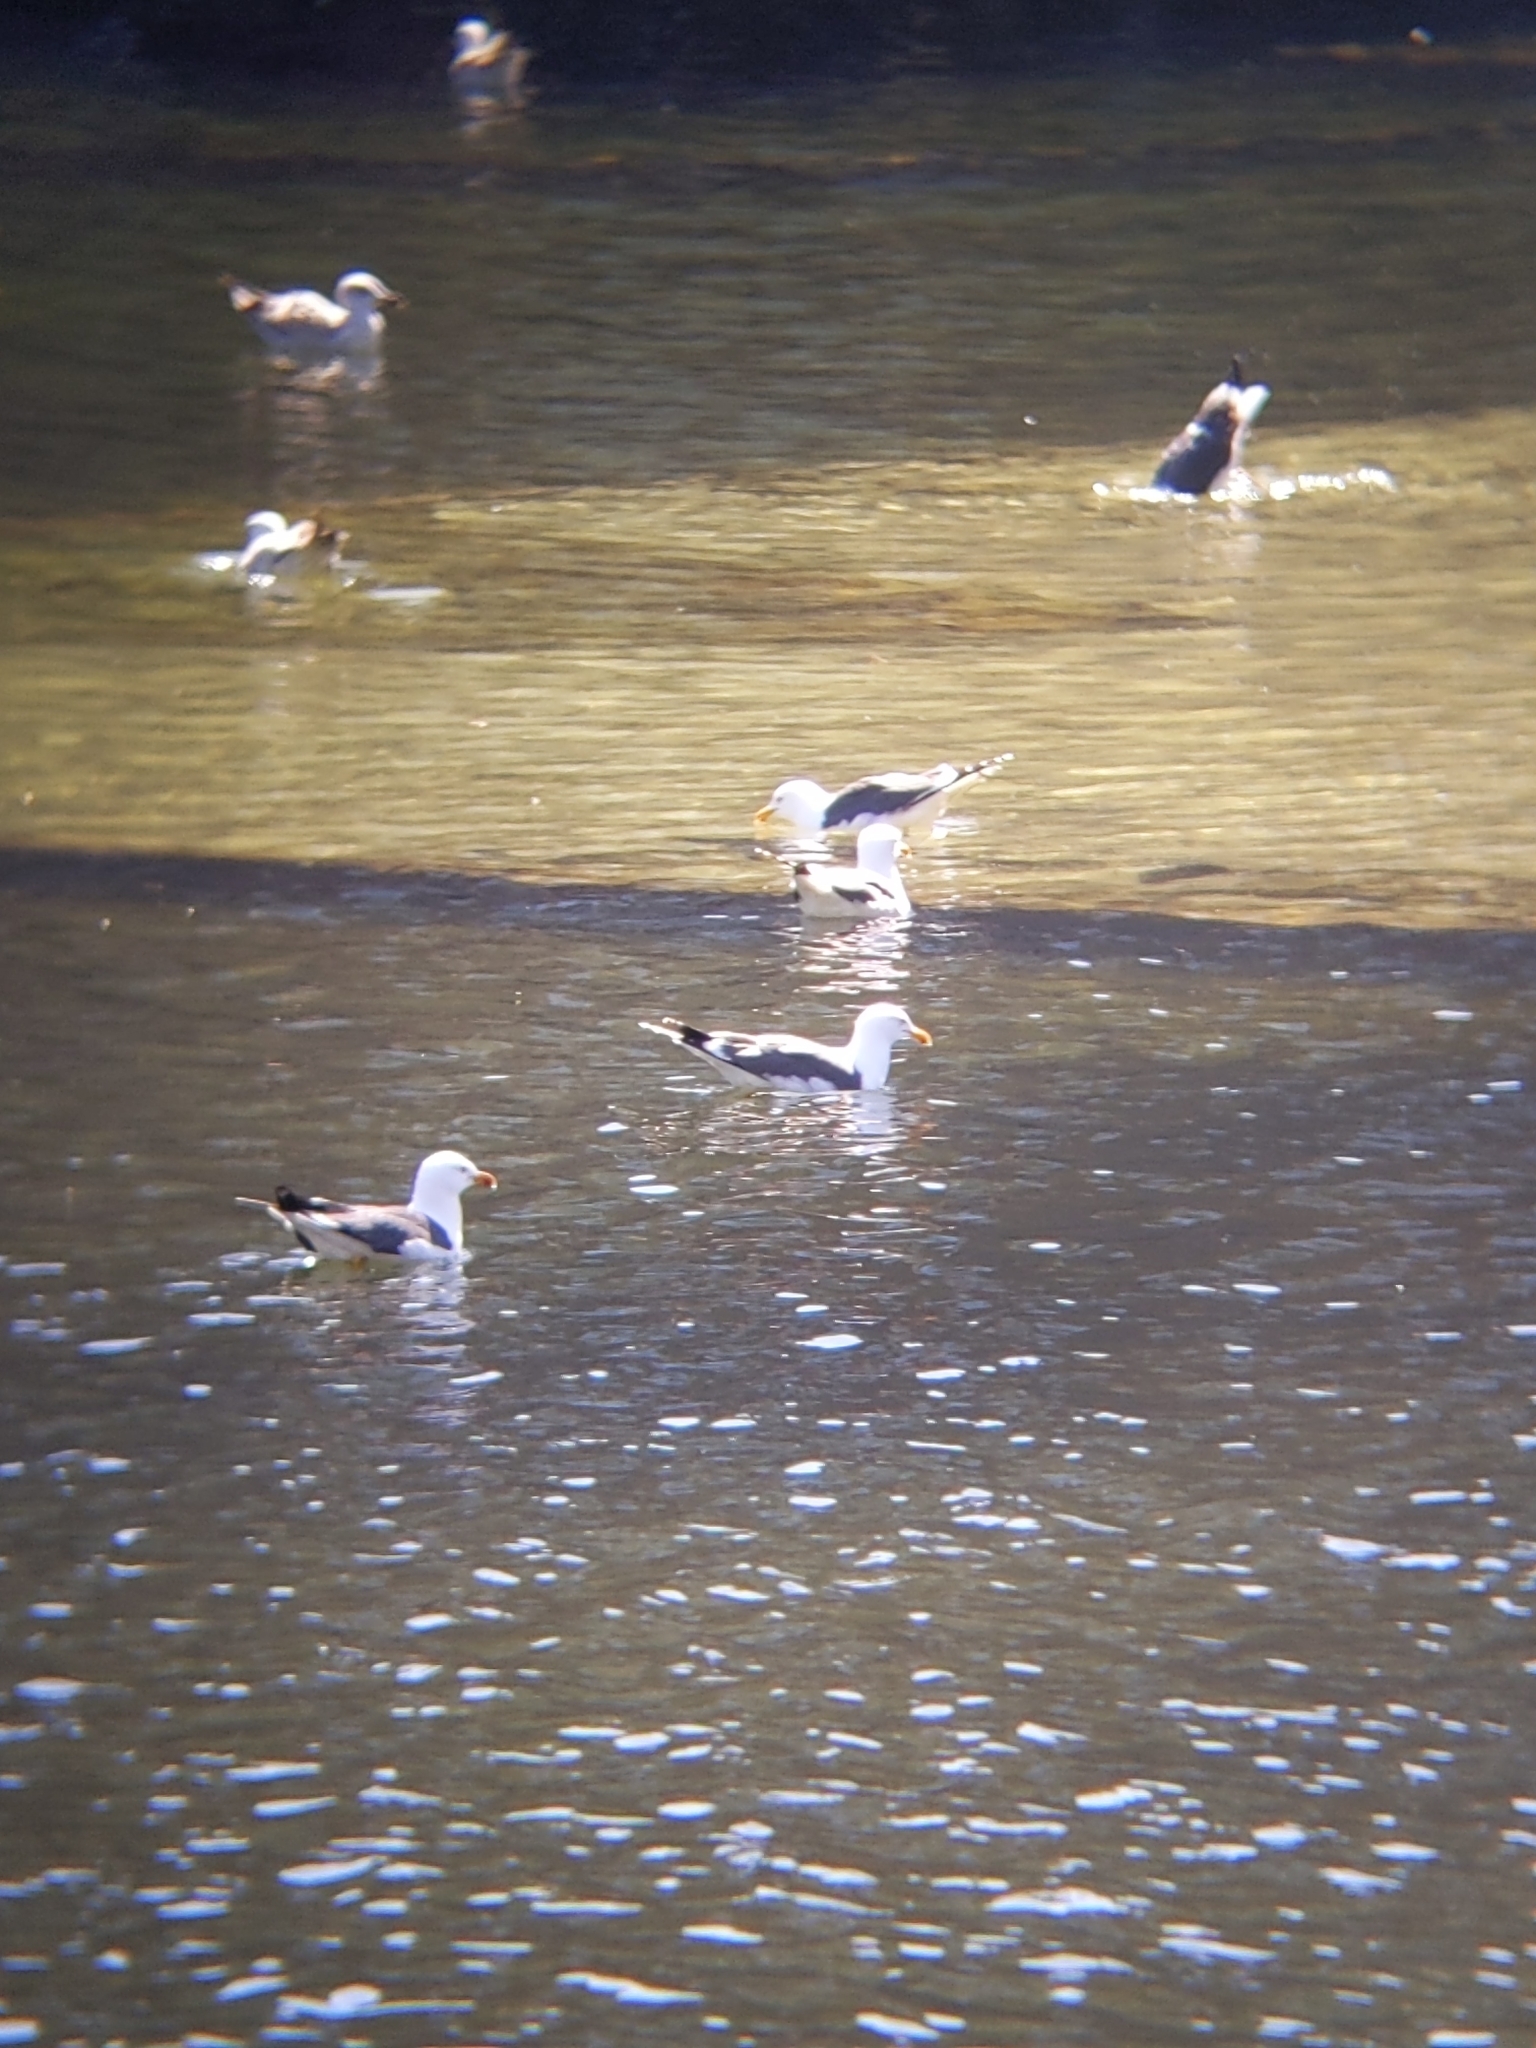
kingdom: Animalia
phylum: Chordata
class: Aves
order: Charadriiformes
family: Laridae
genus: Larus
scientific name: Larus fuscus
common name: Lesser black-backed gull
